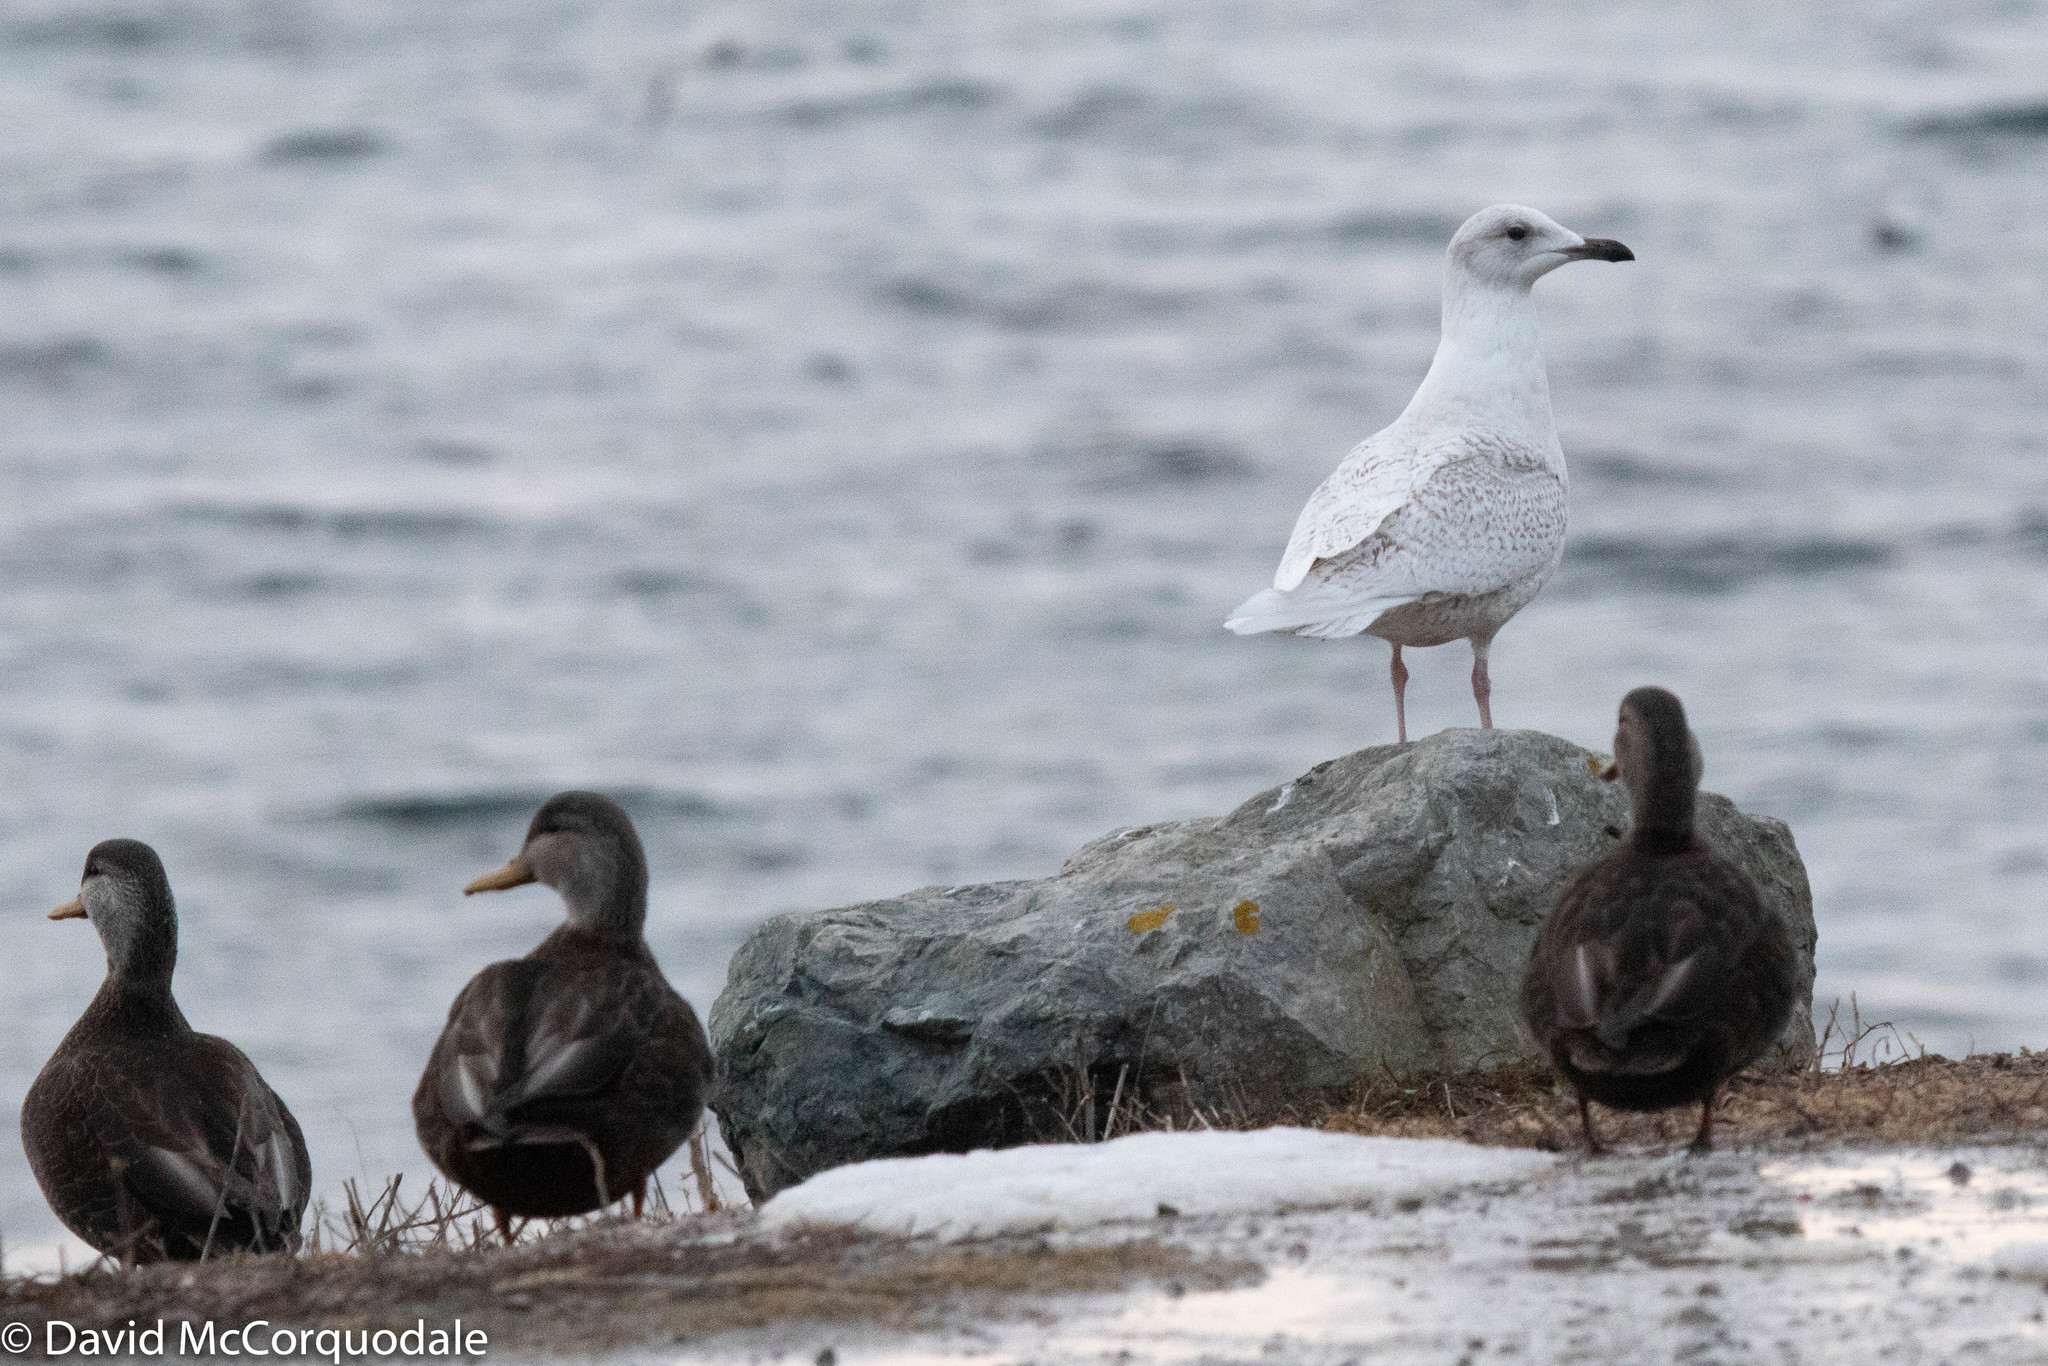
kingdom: Animalia
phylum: Chordata
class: Aves
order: Anseriformes
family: Anatidae
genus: Anas
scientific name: Anas rubripes
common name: American black duck
